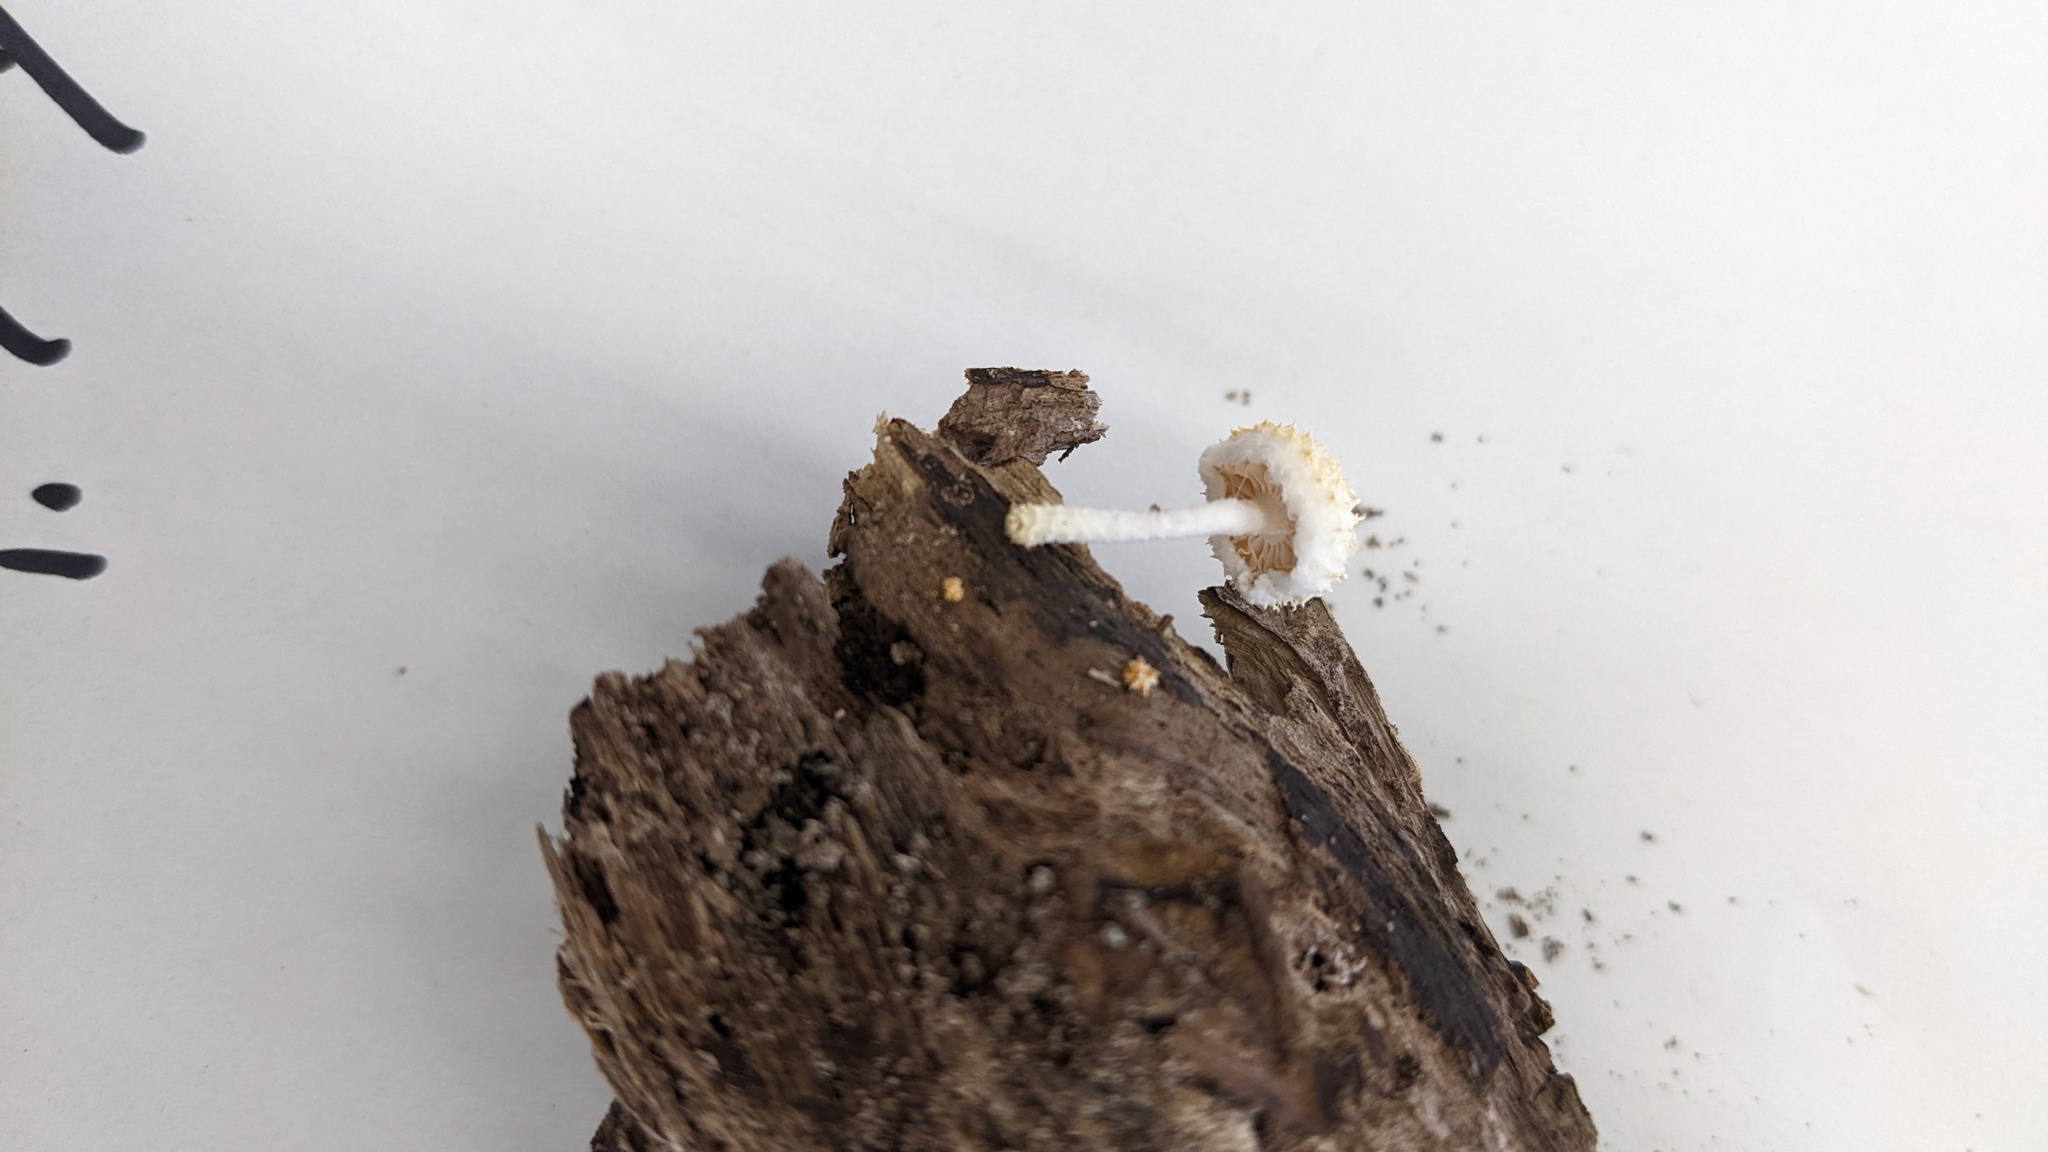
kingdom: Fungi
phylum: Basidiomycota
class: Agaricomycetes
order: Agaricales
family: Physalacriaceae
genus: Cyptotrama
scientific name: Cyptotrama asprata
